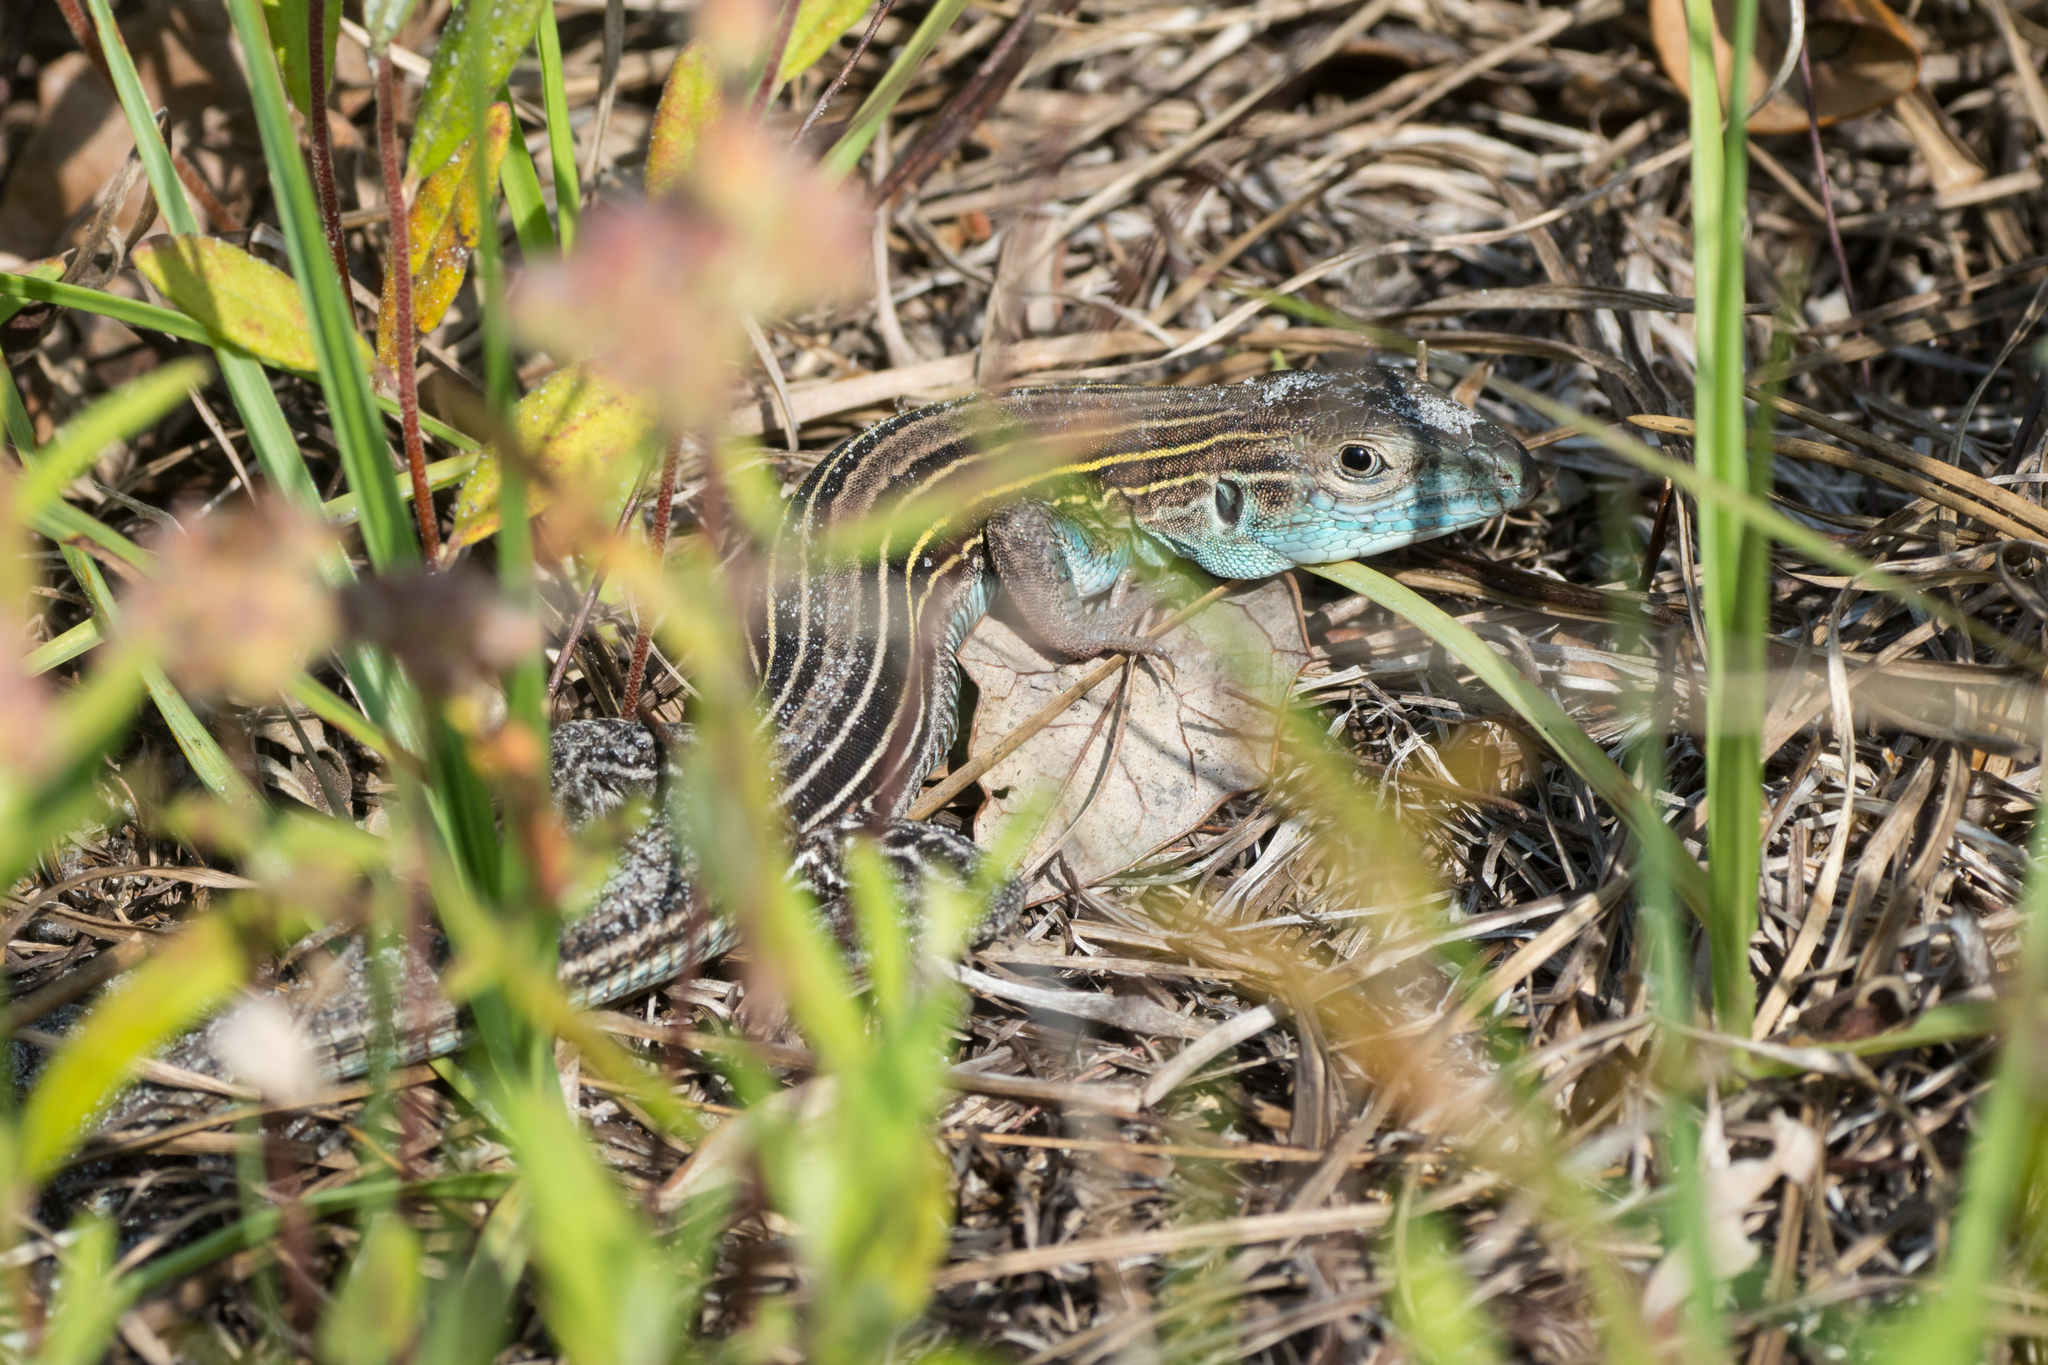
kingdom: Animalia
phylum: Chordata
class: Squamata
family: Teiidae
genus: Aspidoscelis
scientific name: Aspidoscelis sexlineatus
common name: Six-lined racerunner
